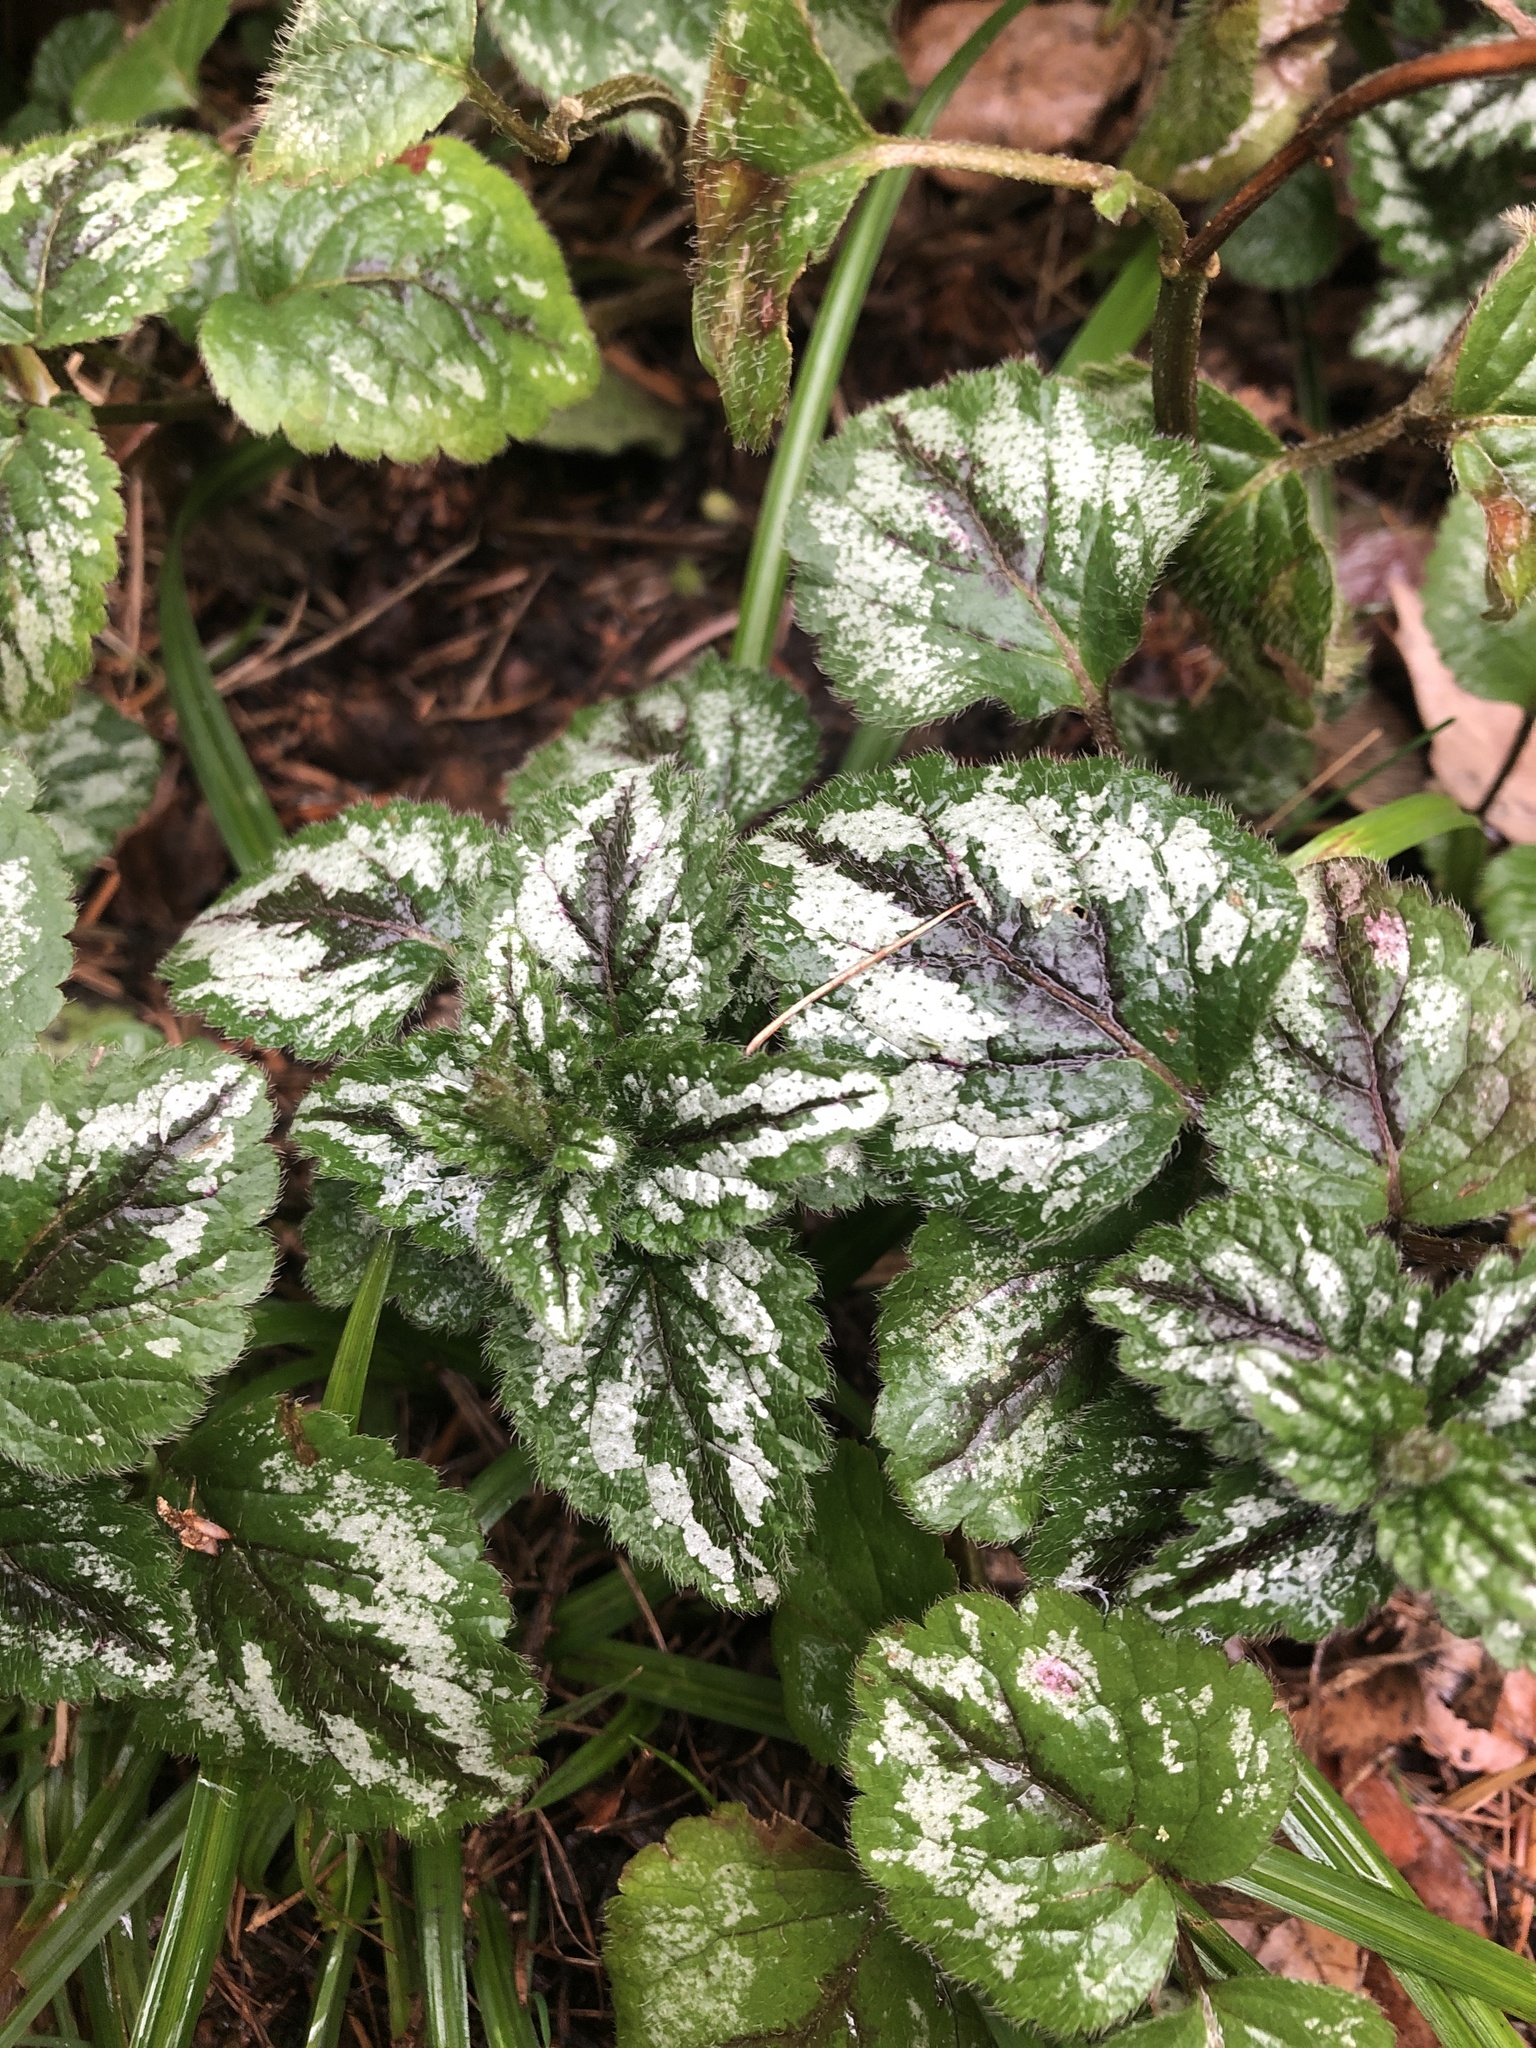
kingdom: Plantae
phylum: Tracheophyta
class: Magnoliopsida
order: Lamiales
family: Lamiaceae
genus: Lamium
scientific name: Lamium galeobdolon
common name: Yellow archangel
